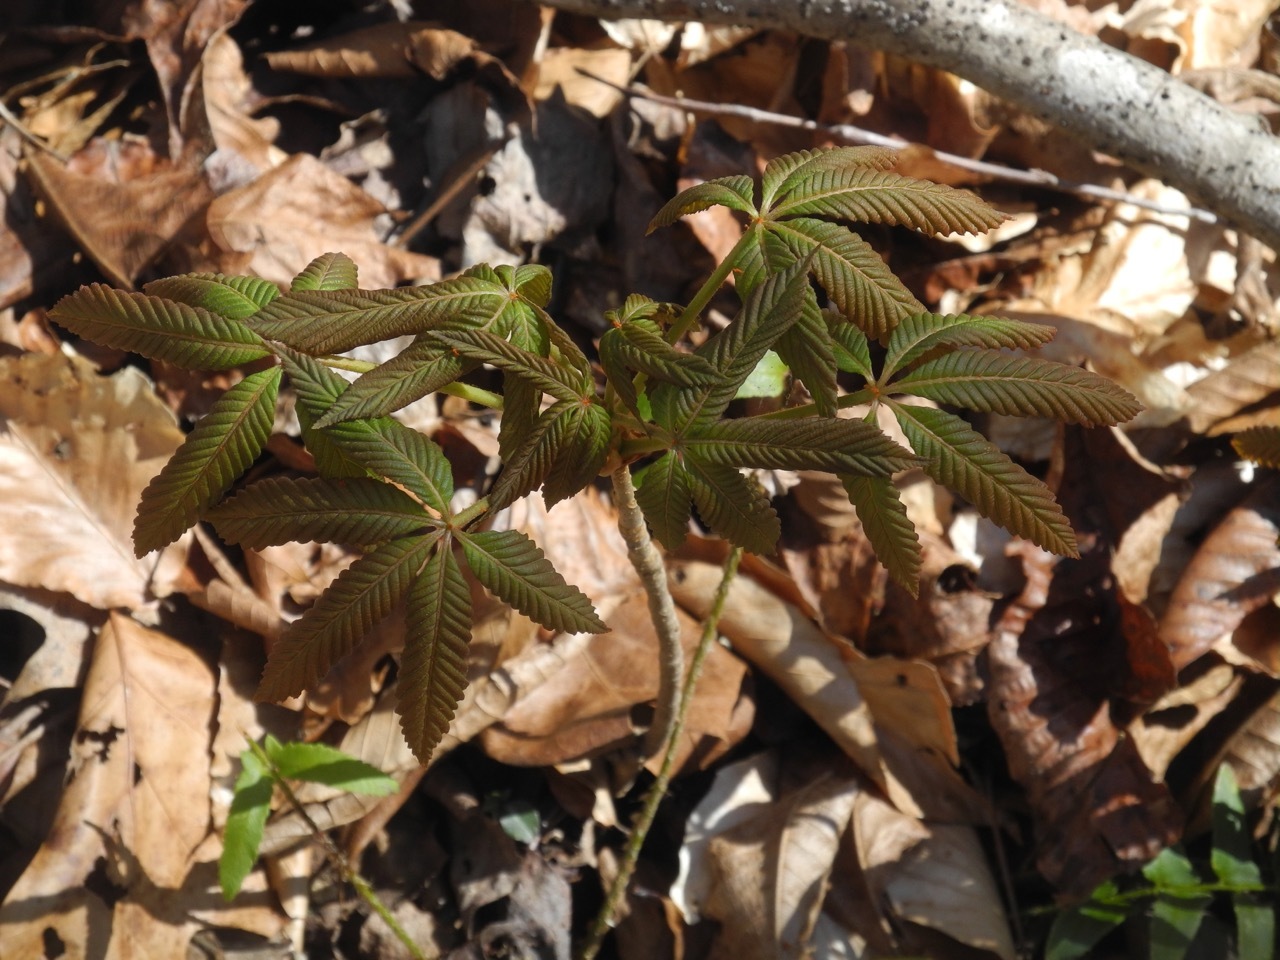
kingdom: Plantae
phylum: Tracheophyta
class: Magnoliopsida
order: Sapindales
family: Sapindaceae
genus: Aesculus
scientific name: Aesculus sylvatica
